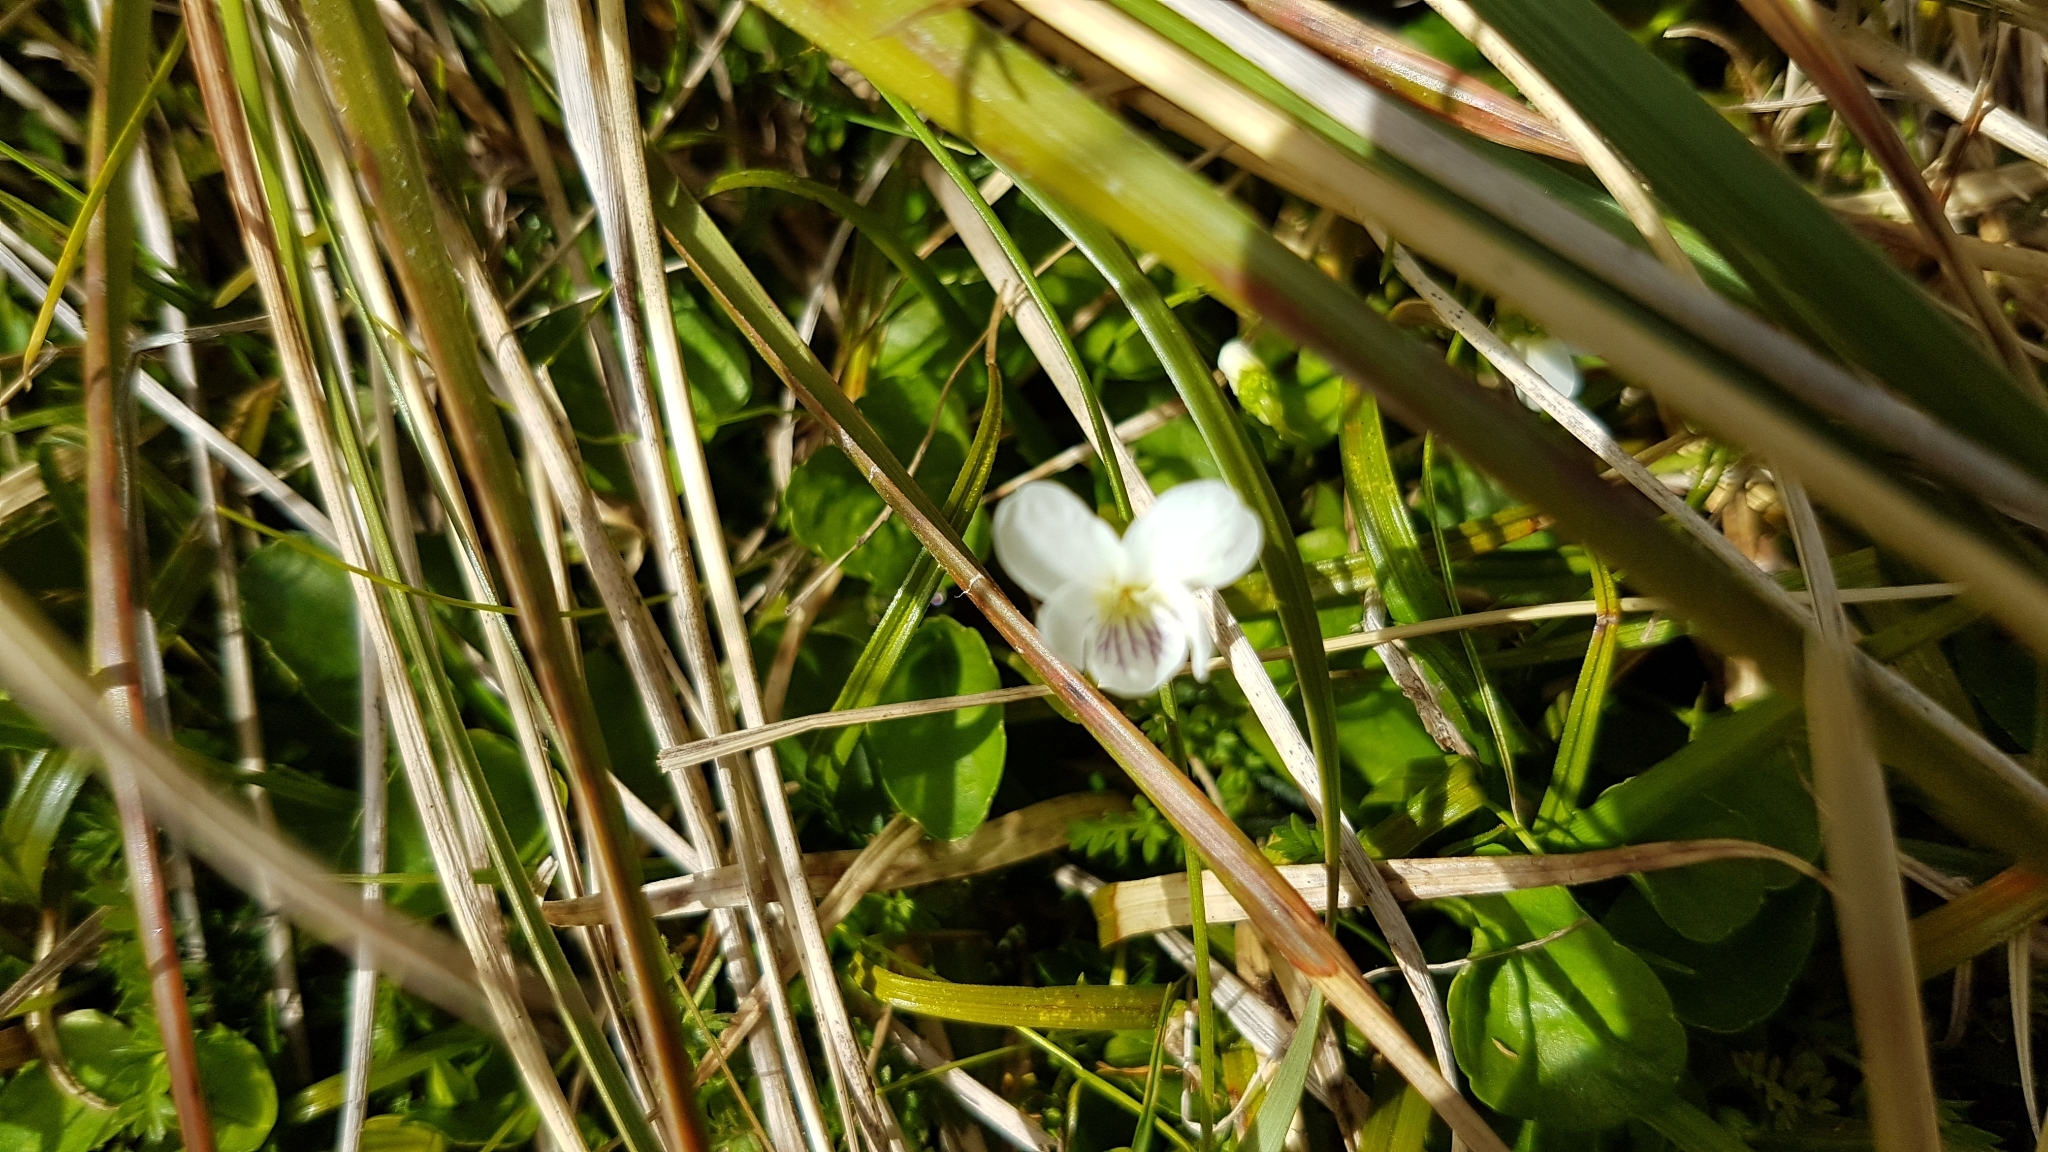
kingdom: Plantae
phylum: Tracheophyta
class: Magnoliopsida
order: Malpighiales
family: Violaceae
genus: Viola
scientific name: Viola cunninghamii
